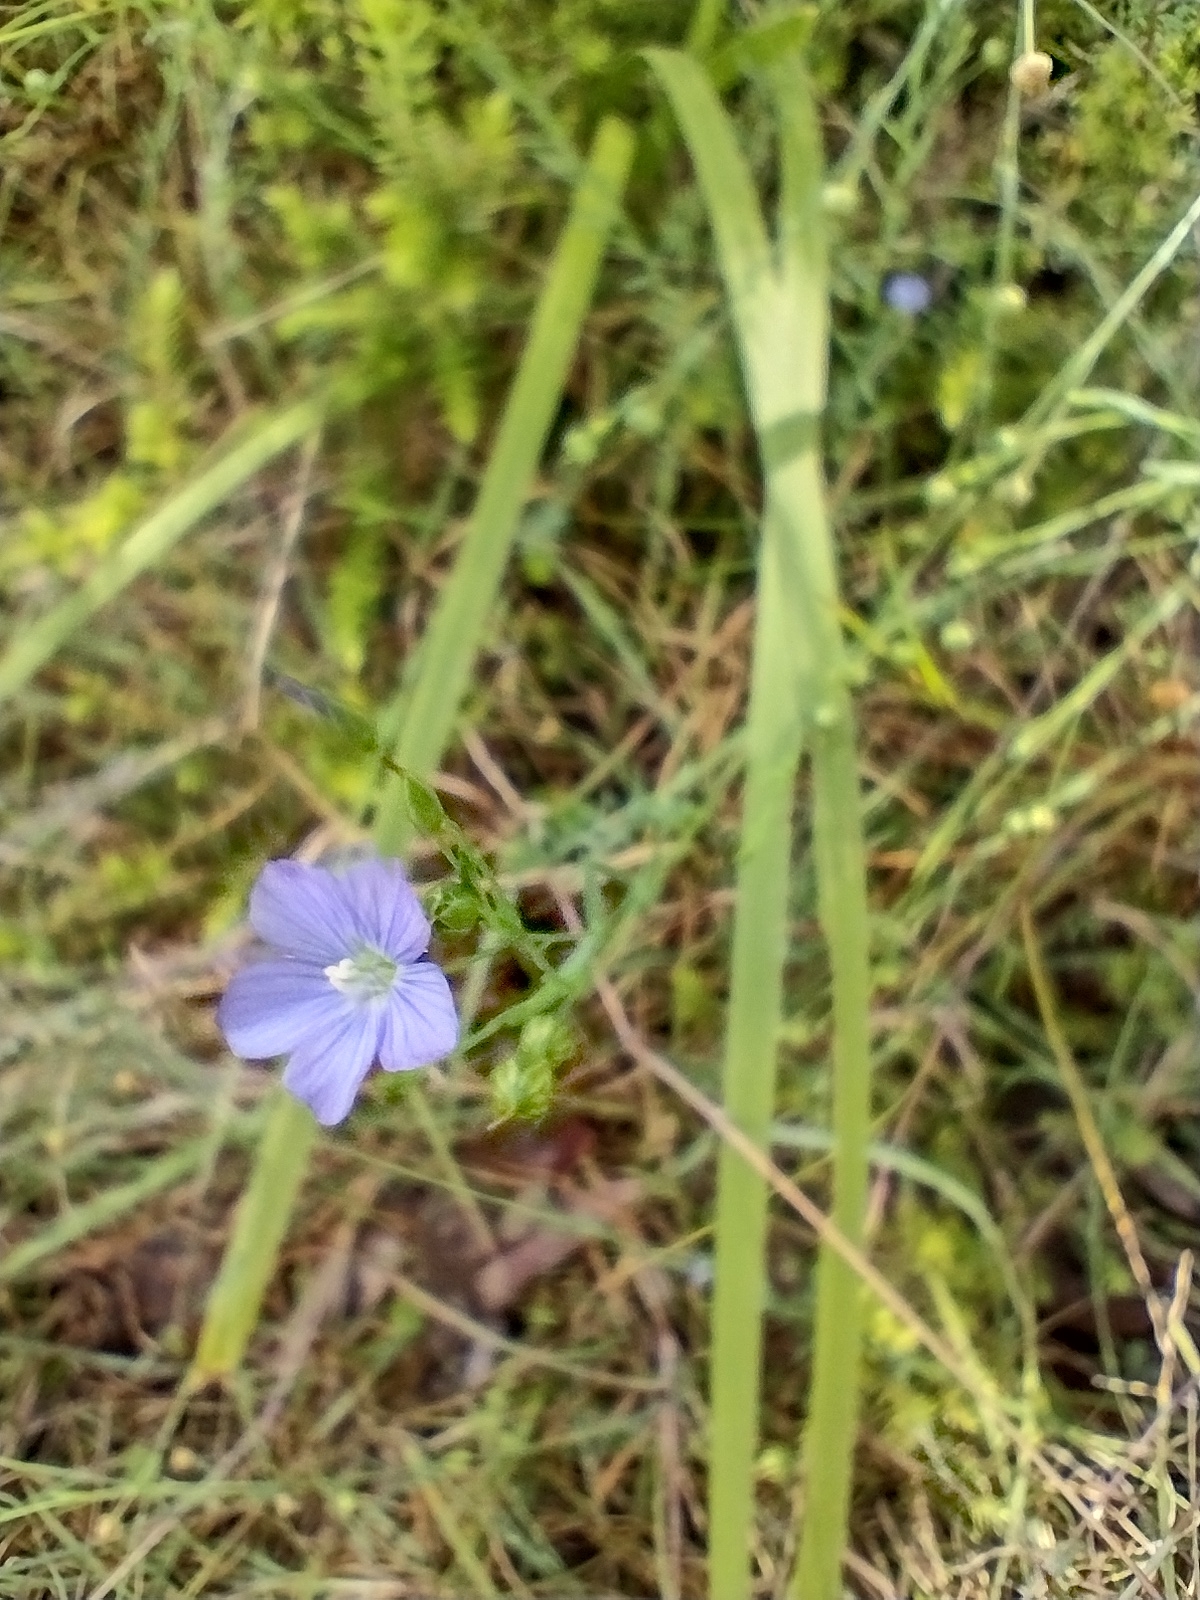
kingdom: Plantae
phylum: Tracheophyta
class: Magnoliopsida
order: Malpighiales
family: Linaceae
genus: Linum
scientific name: Linum marginale
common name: Wild flax
